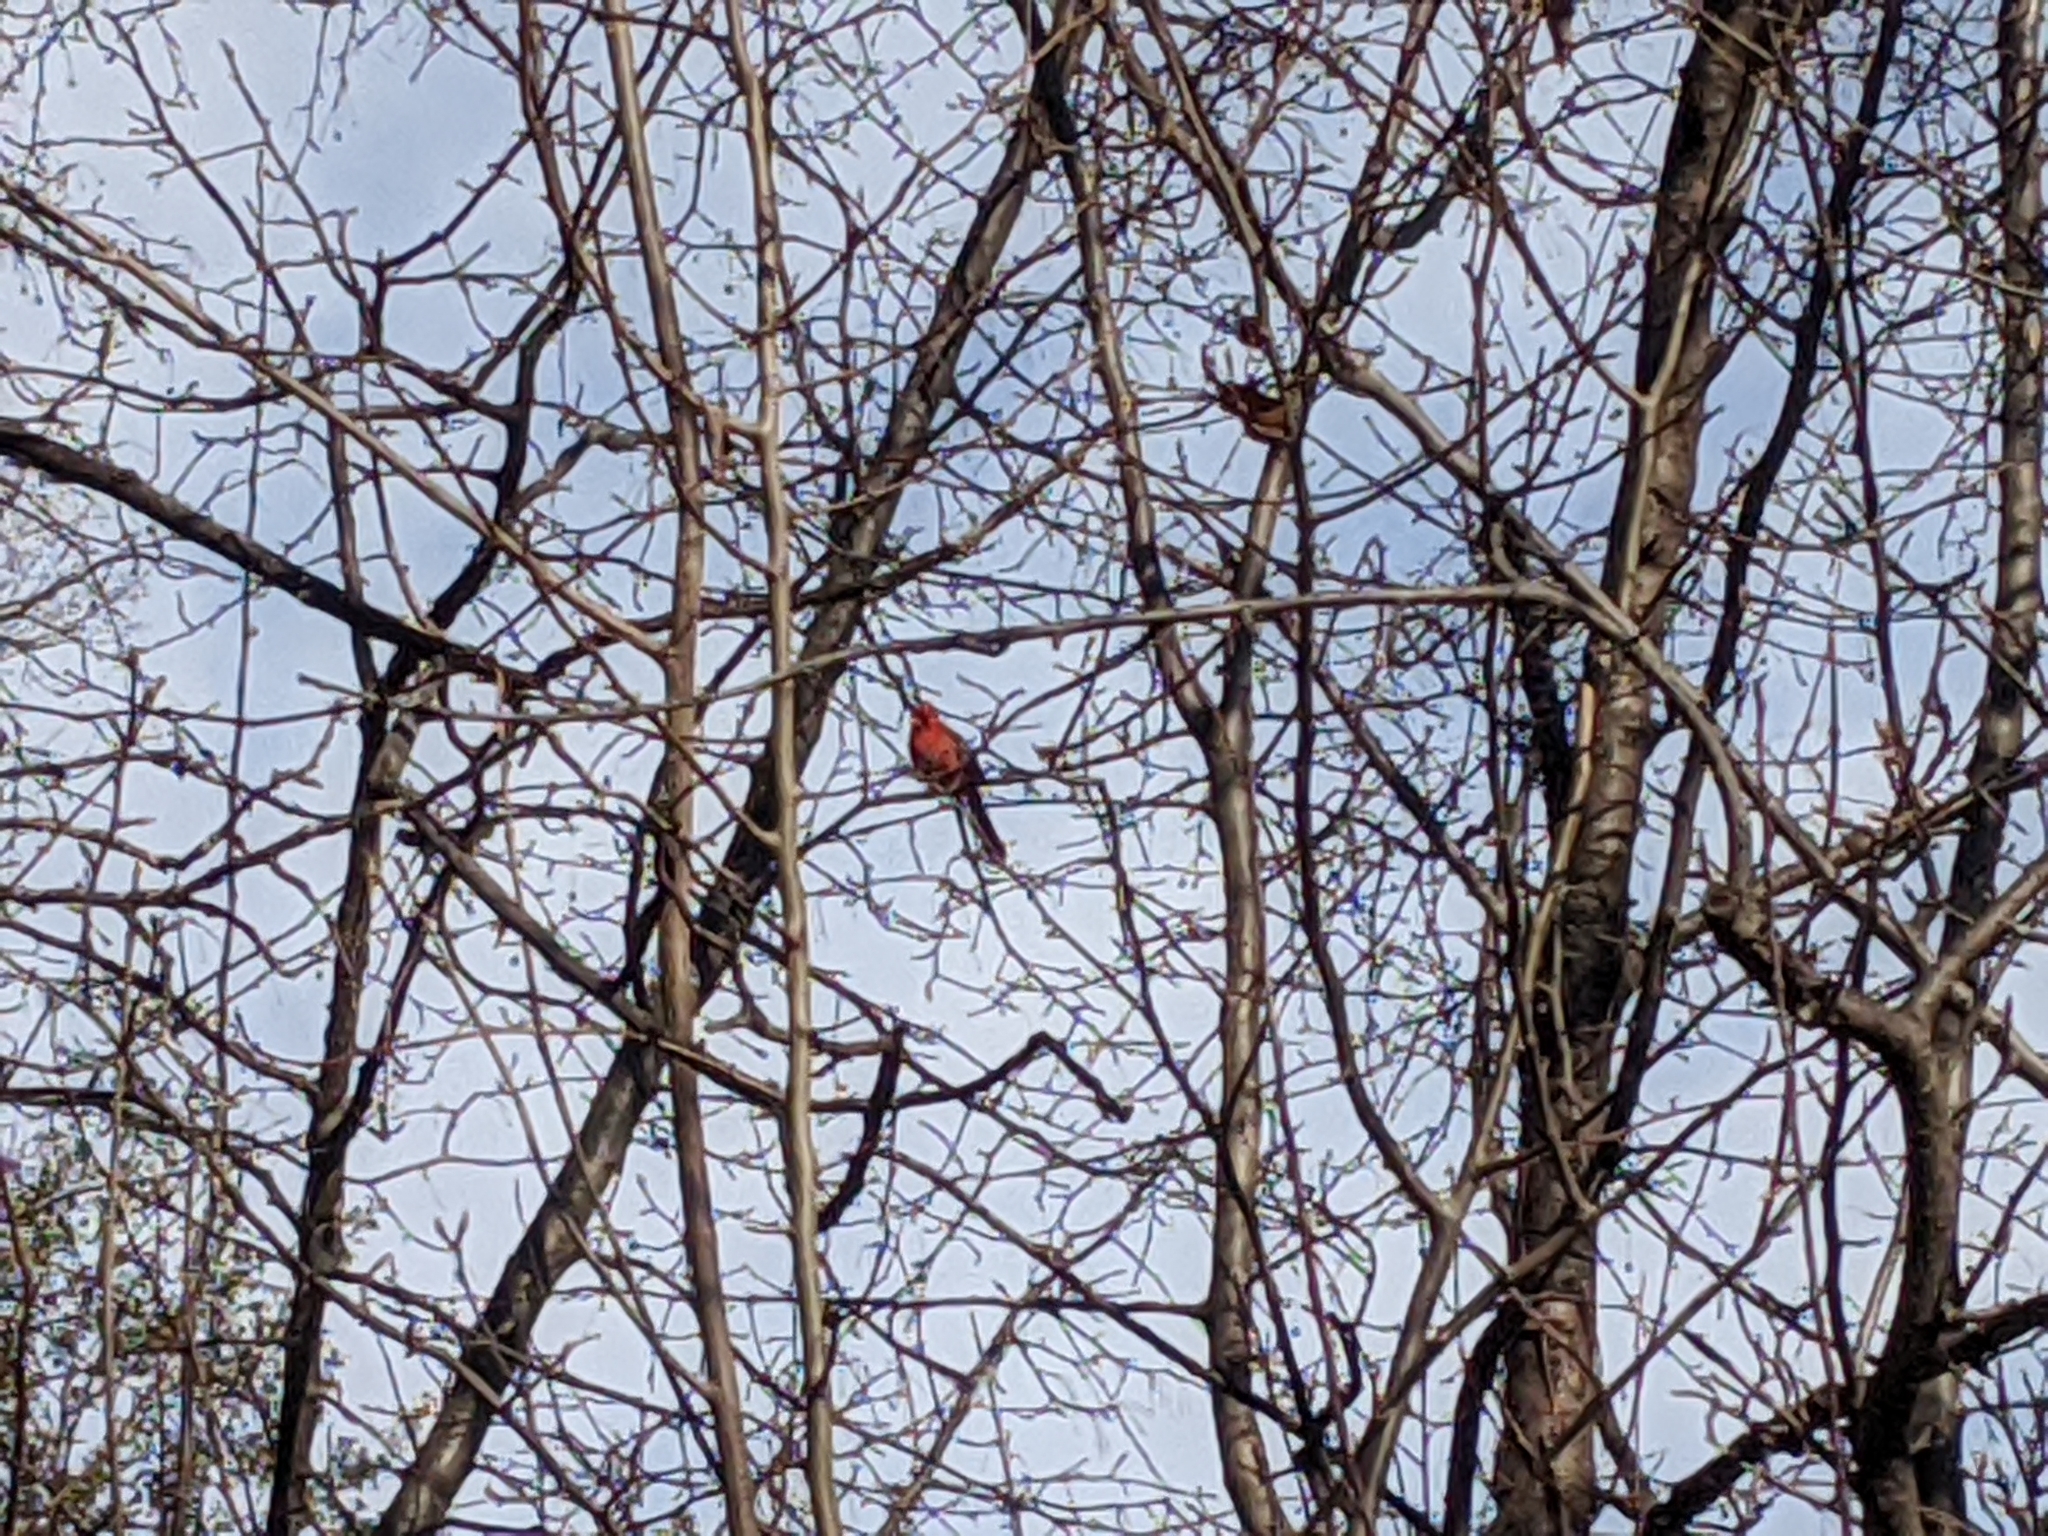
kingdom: Animalia
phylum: Chordata
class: Aves
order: Passeriformes
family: Cardinalidae
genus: Cardinalis
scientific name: Cardinalis cardinalis
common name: Northern cardinal
